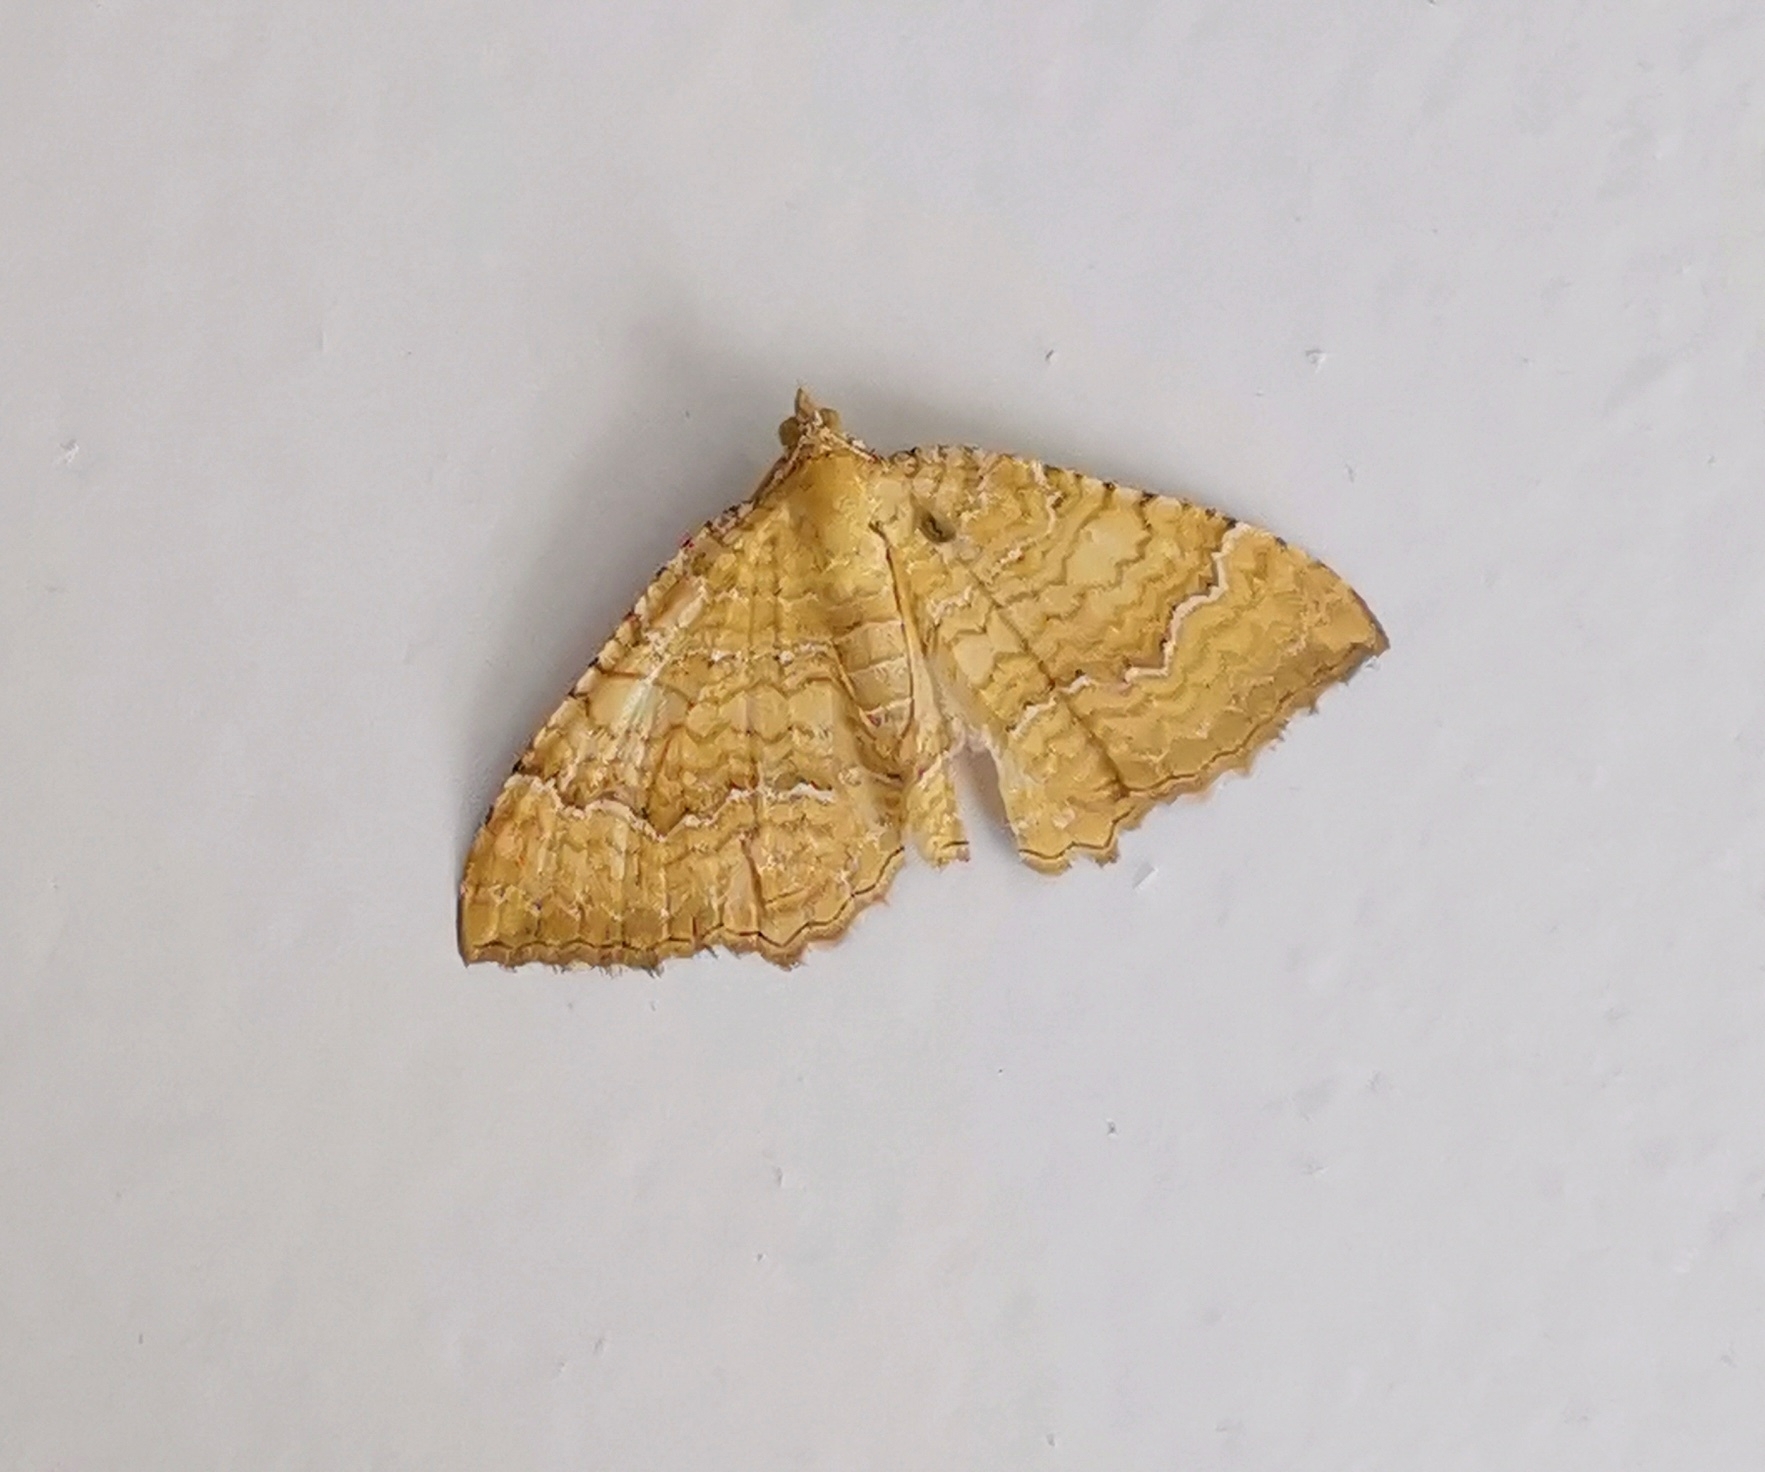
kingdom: Animalia
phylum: Arthropoda
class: Insecta
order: Lepidoptera
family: Geometridae
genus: Camptogramma
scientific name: Camptogramma bilineata
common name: Yellow shell
